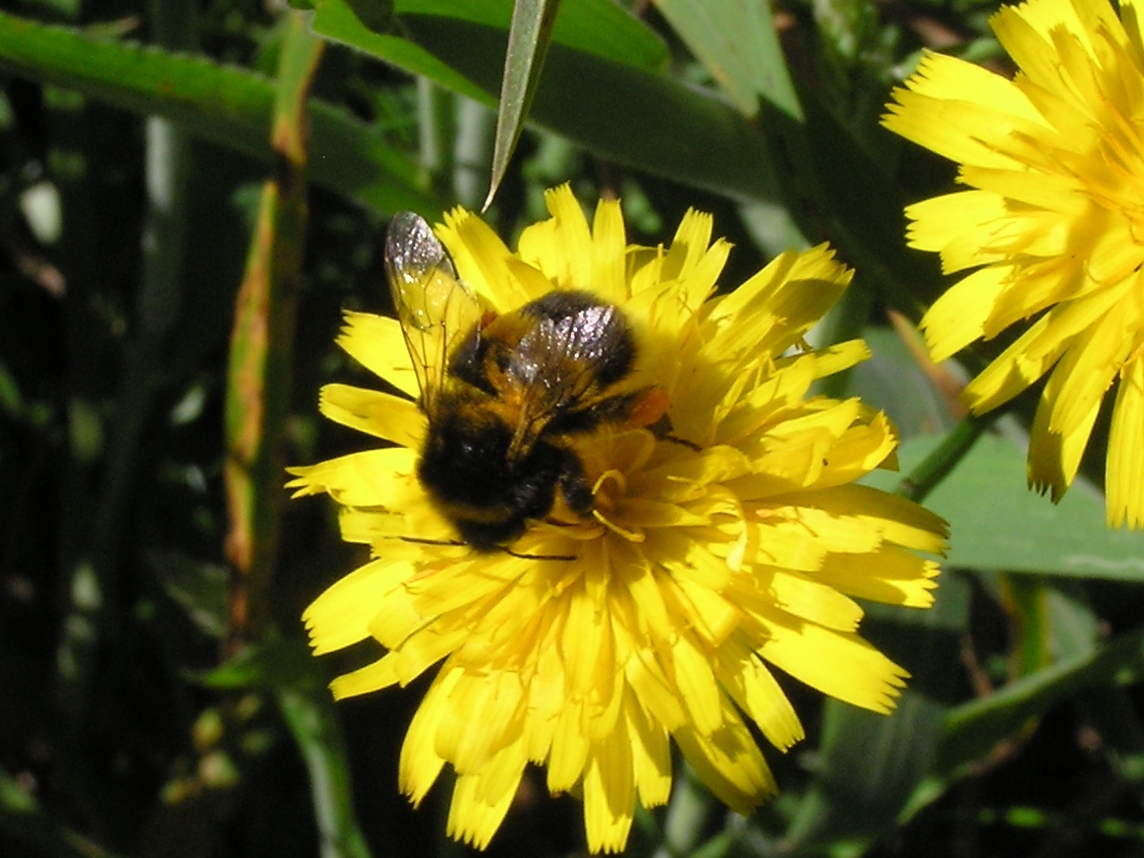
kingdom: Animalia
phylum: Arthropoda
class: Insecta
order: Hymenoptera
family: Apidae
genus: Bombus
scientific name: Bombus terrestris
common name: Buff-tailed bumblebee
